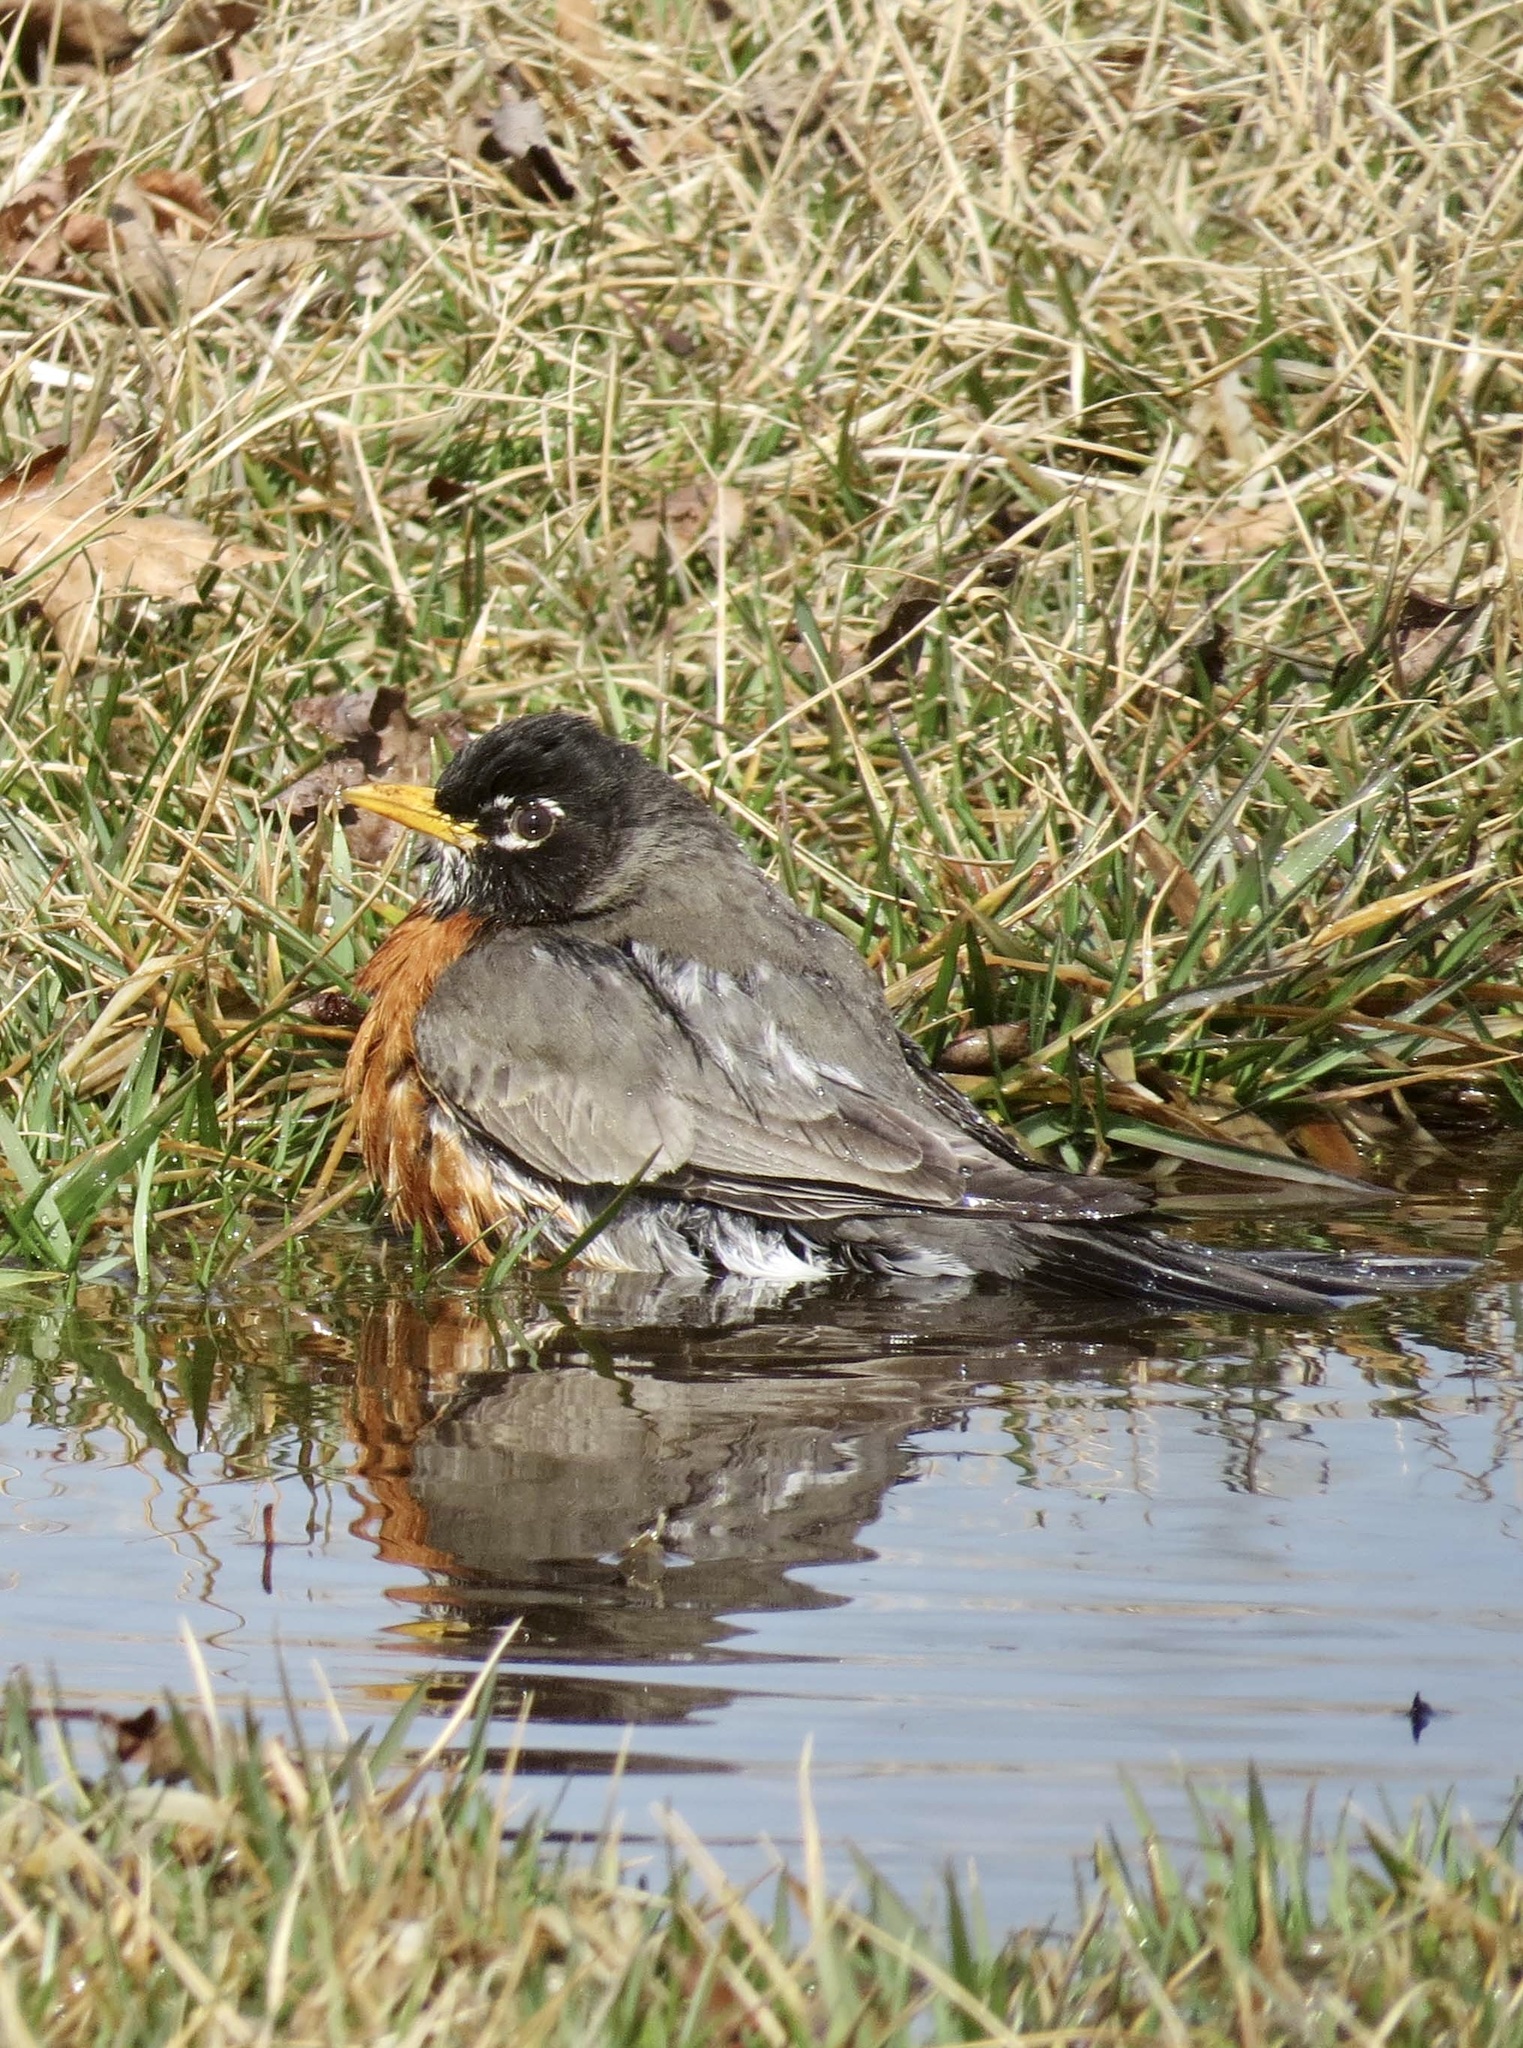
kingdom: Animalia
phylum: Chordata
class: Aves
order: Passeriformes
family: Turdidae
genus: Turdus
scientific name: Turdus migratorius
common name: American robin
